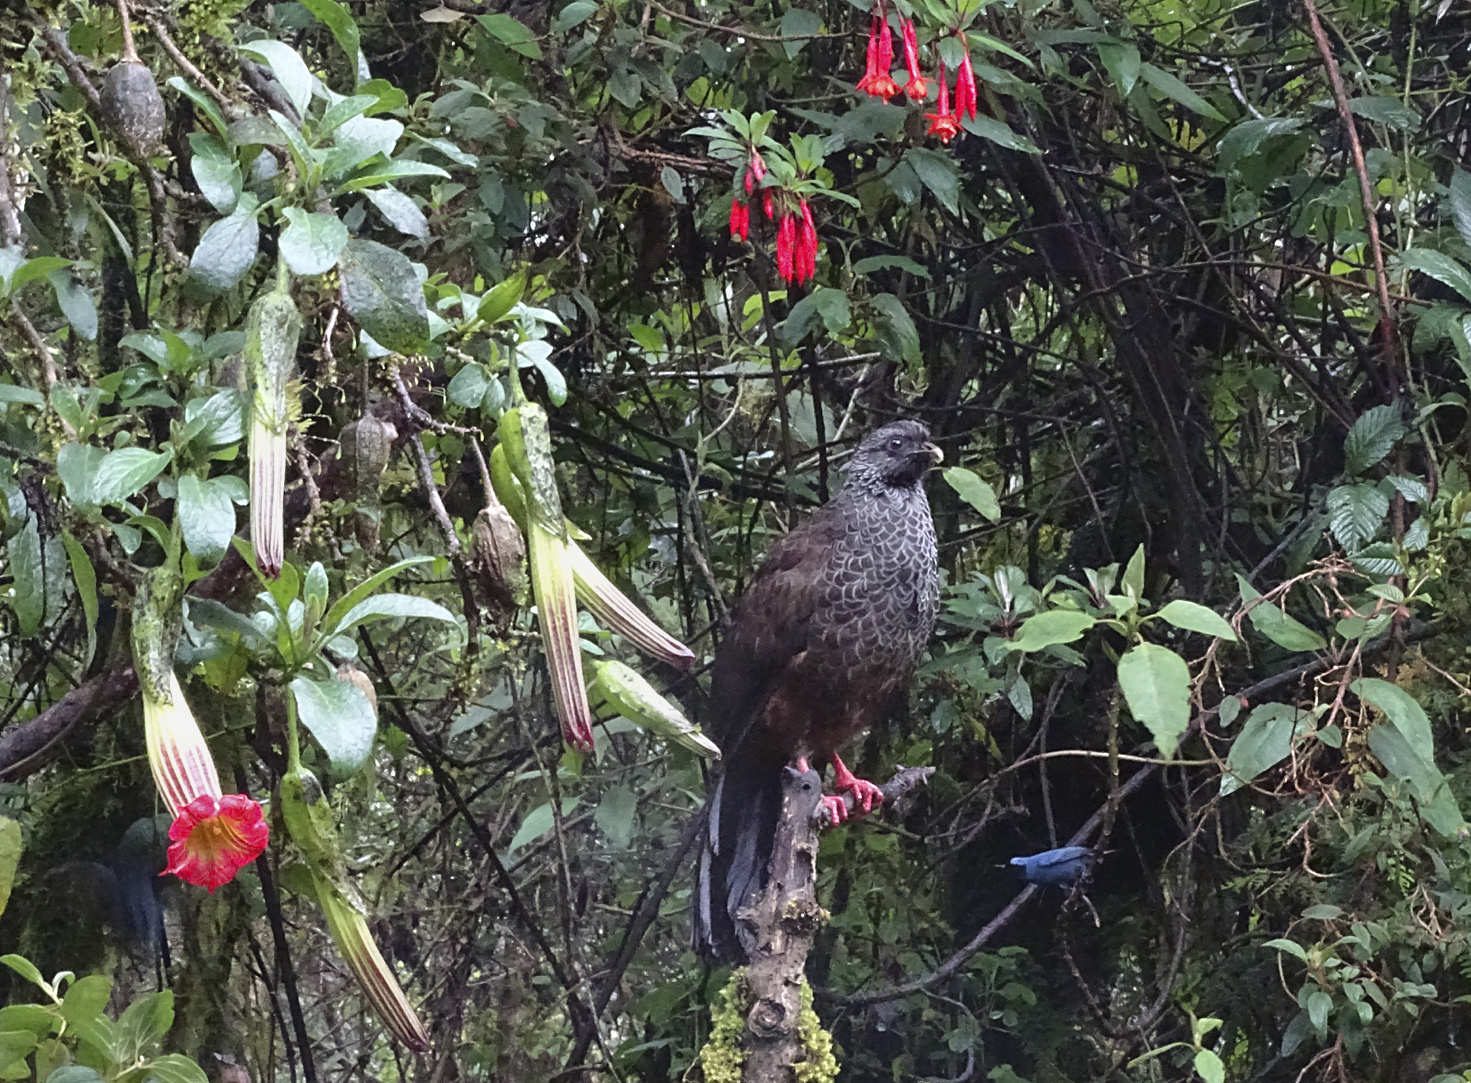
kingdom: Animalia
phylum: Chordata
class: Aves
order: Galliformes
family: Cracidae
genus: Penelope
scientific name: Penelope montagnii
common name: Andean guan
